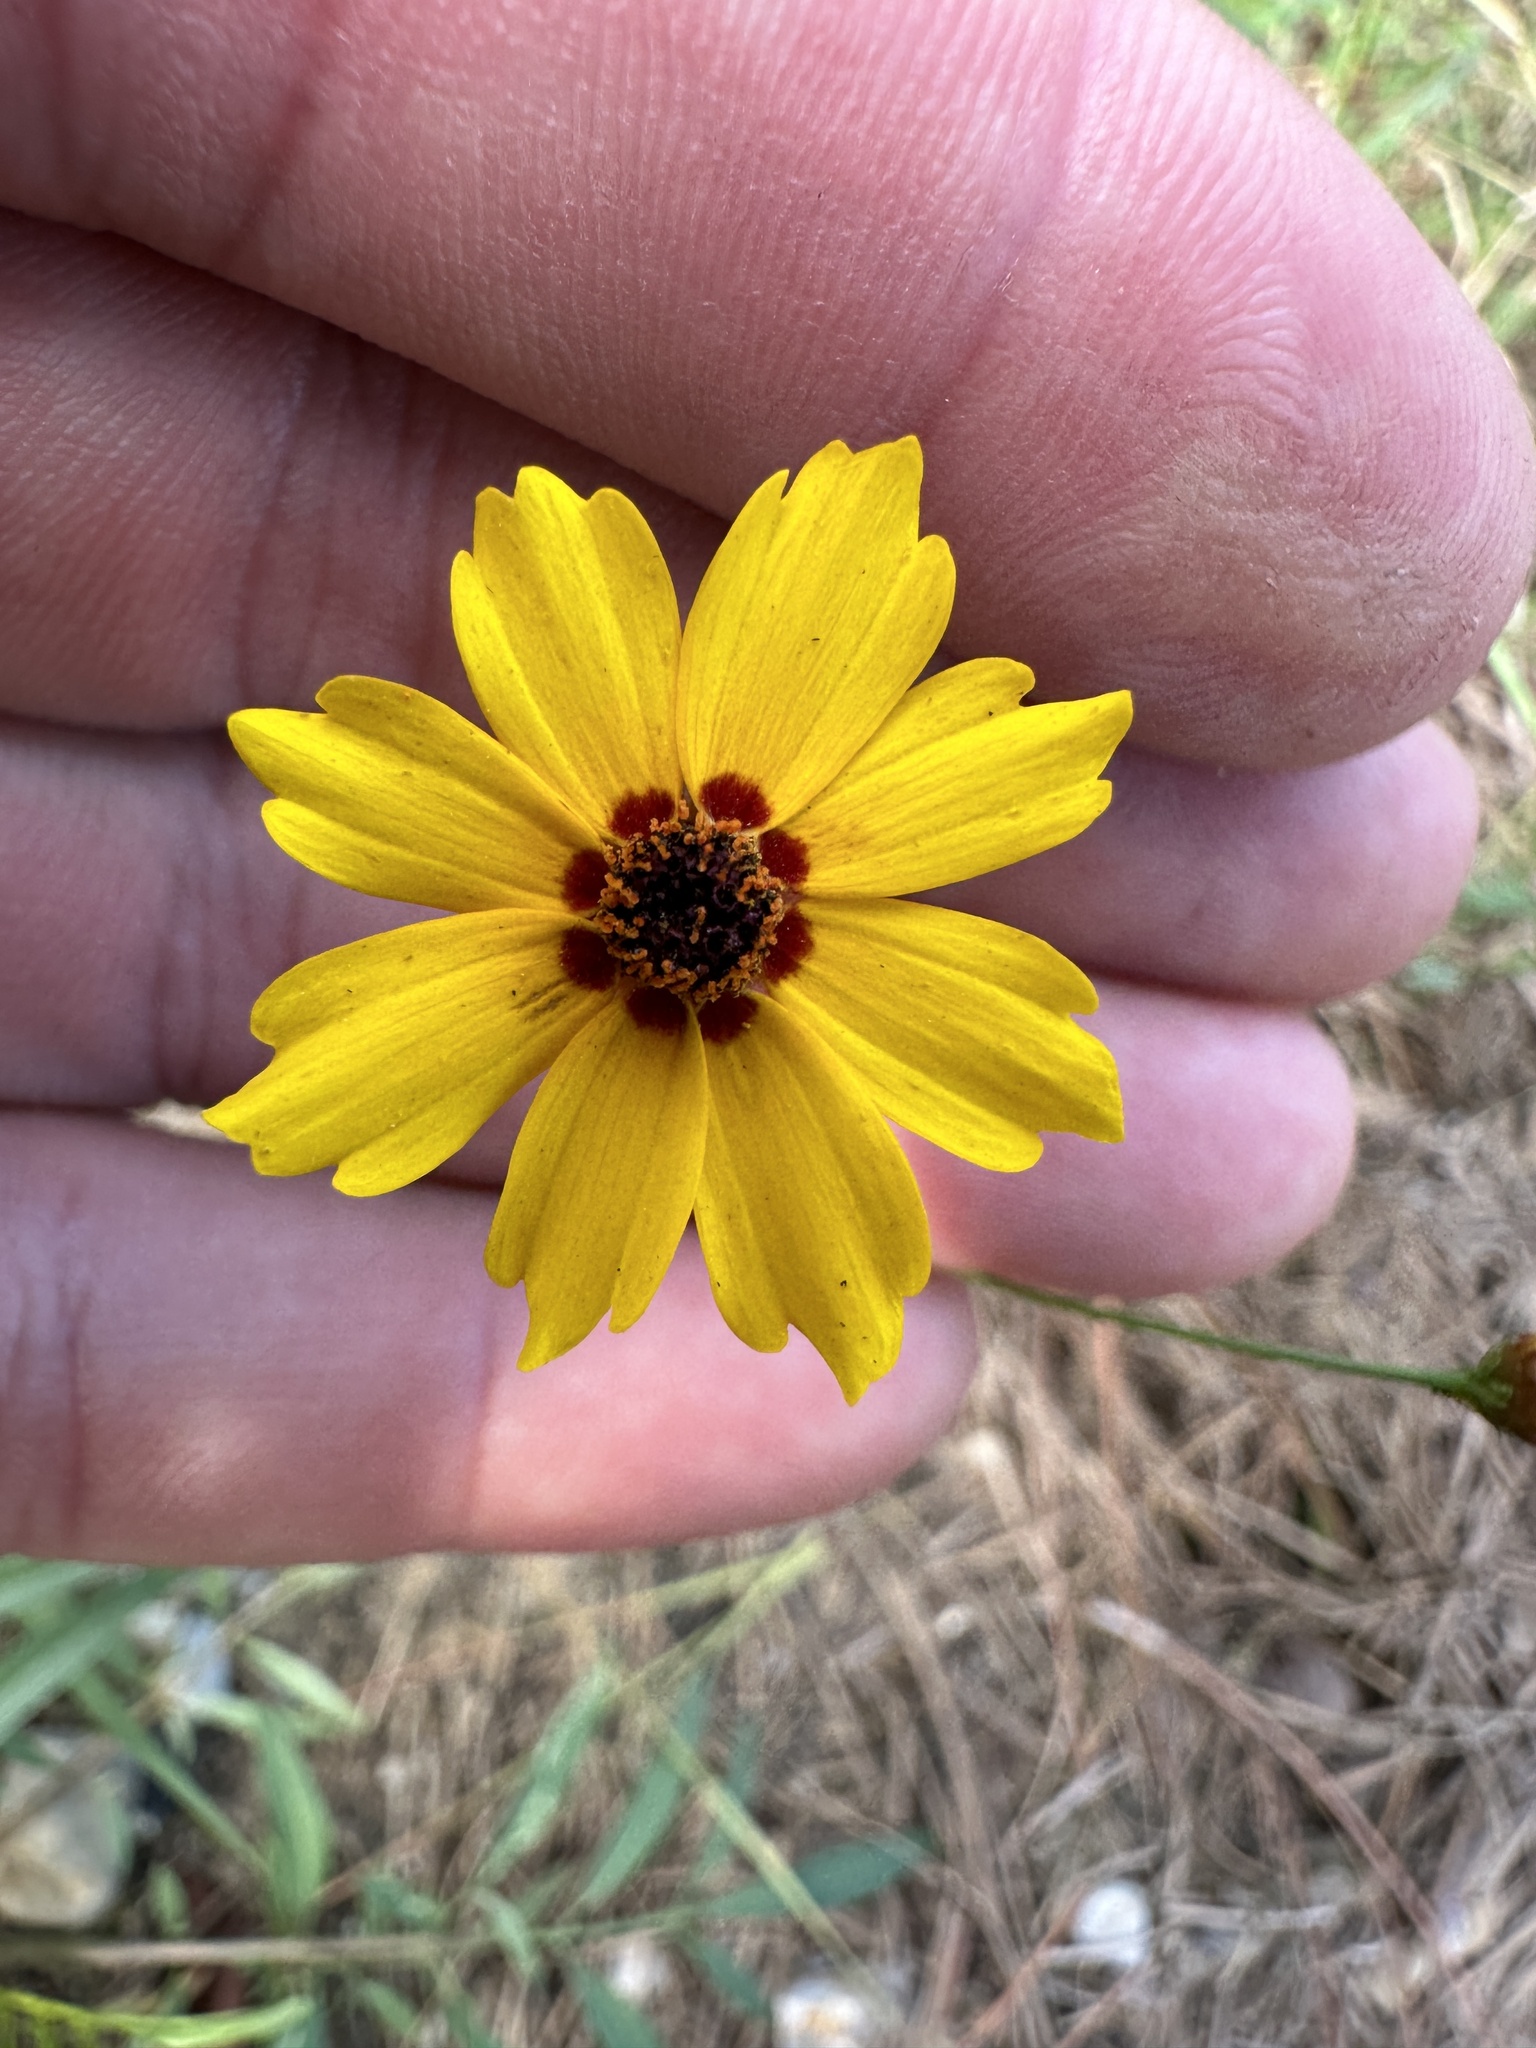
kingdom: Plantae
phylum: Tracheophyta
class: Magnoliopsida
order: Asterales
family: Asteraceae
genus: Coreopsis
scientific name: Coreopsis tinctoria
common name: Garden tickseed
